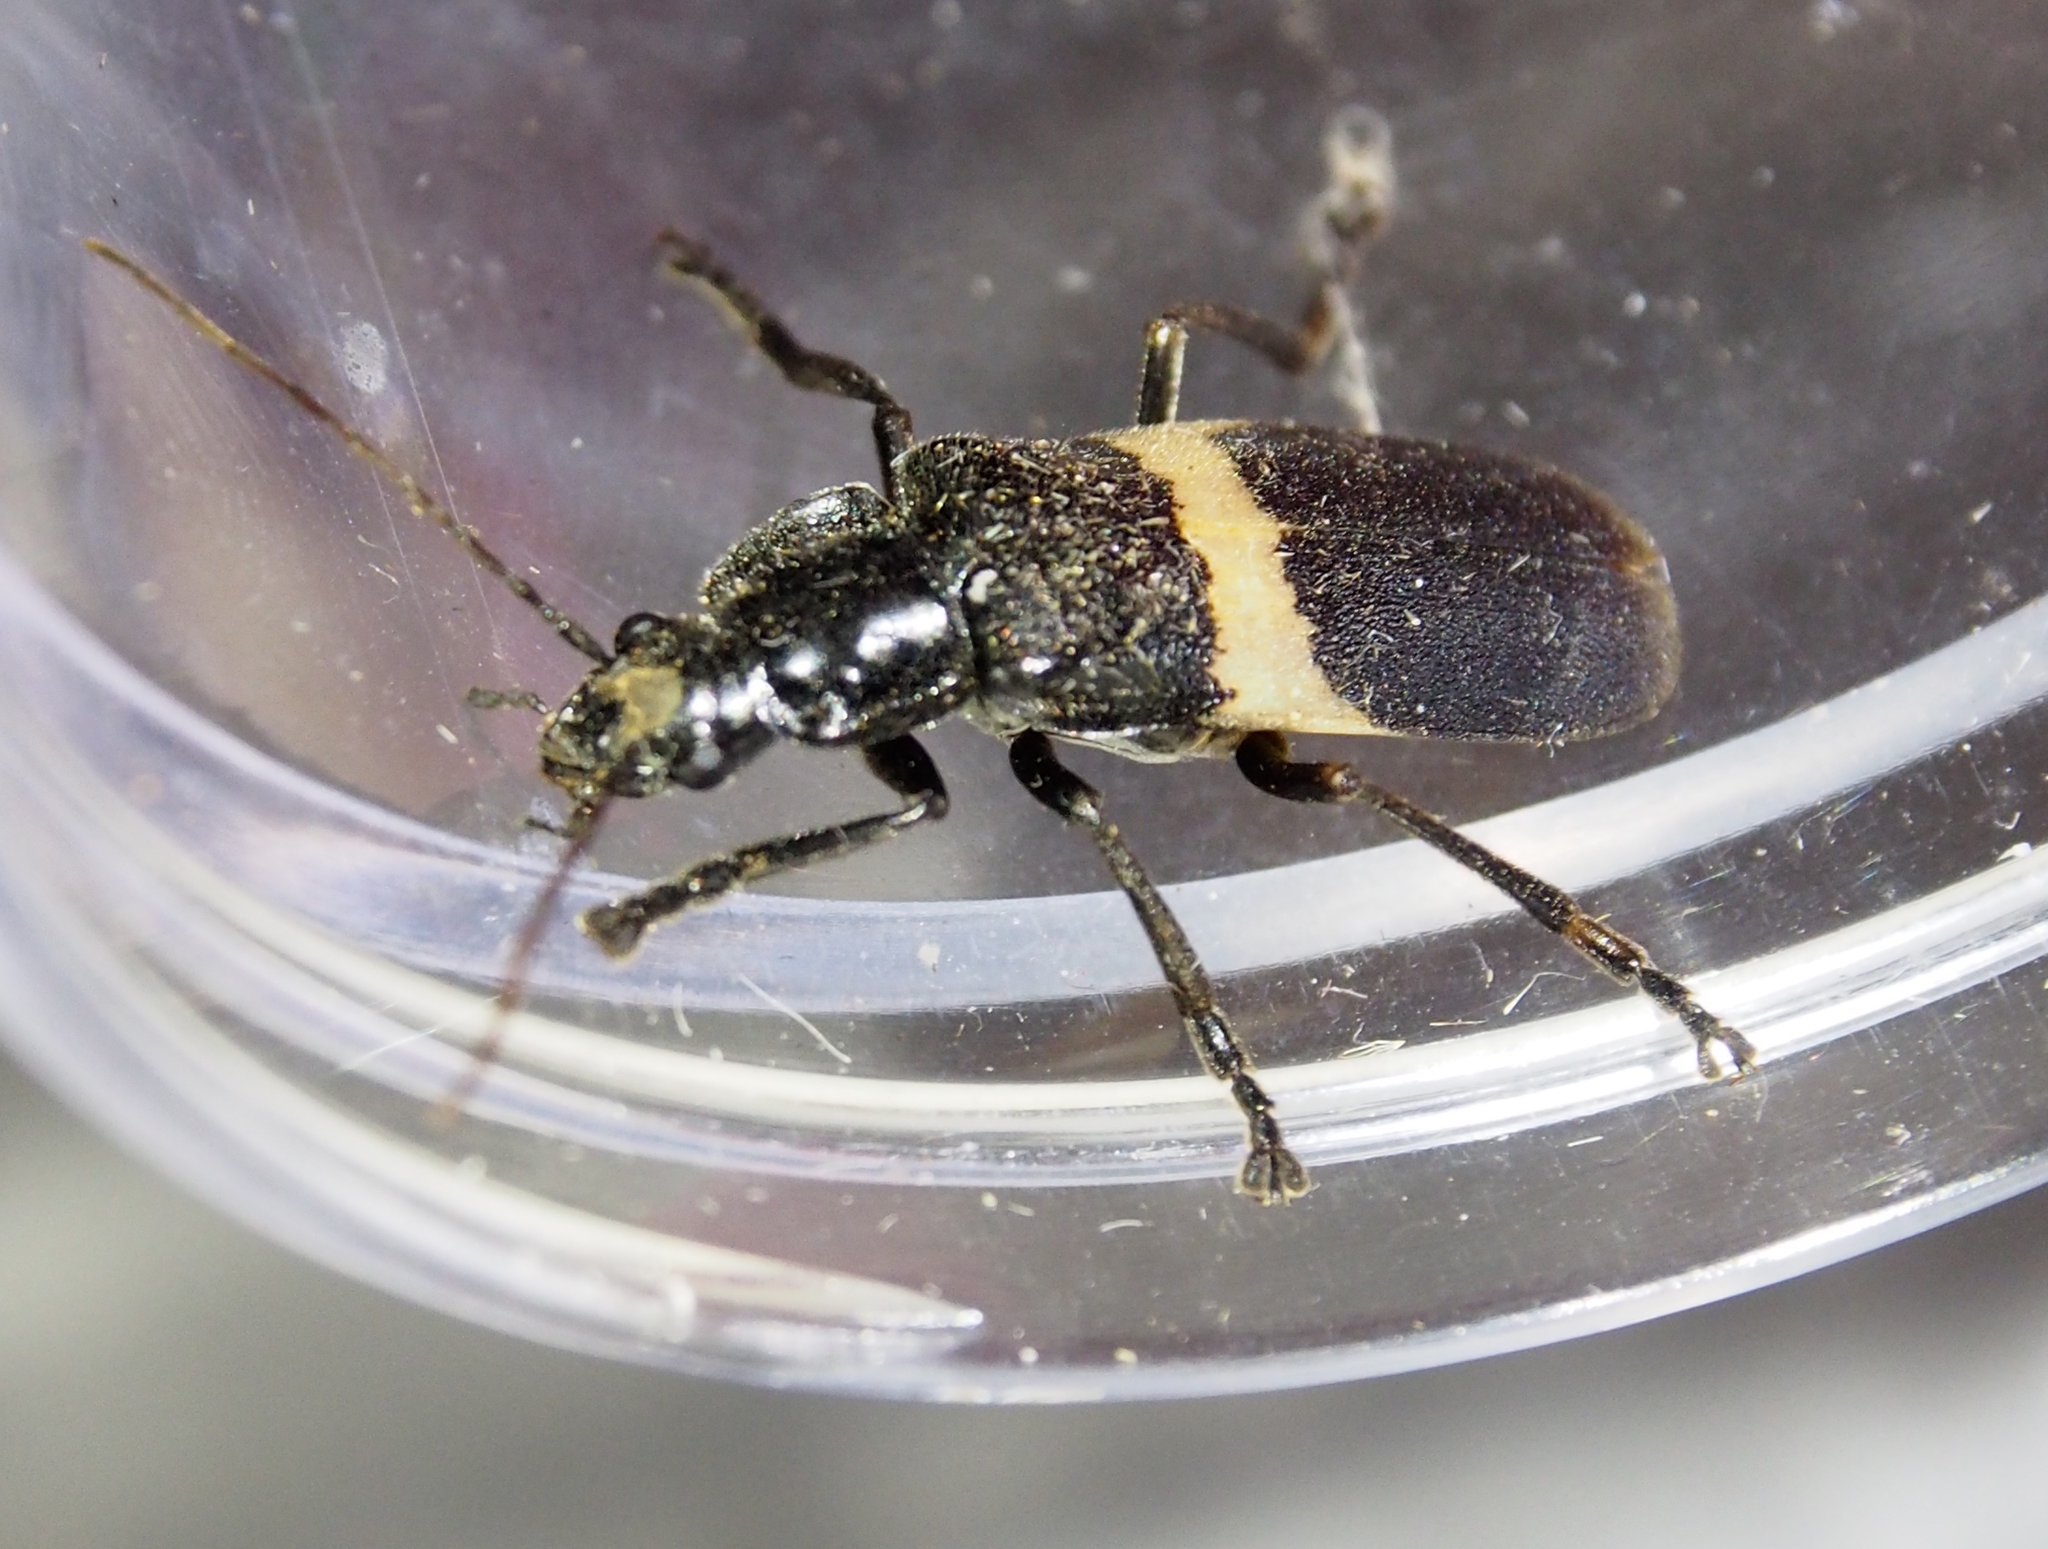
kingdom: Animalia
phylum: Arthropoda
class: Insecta
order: Coleoptera
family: Cantharidae
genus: Chauliognathus
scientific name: Chauliognathus
